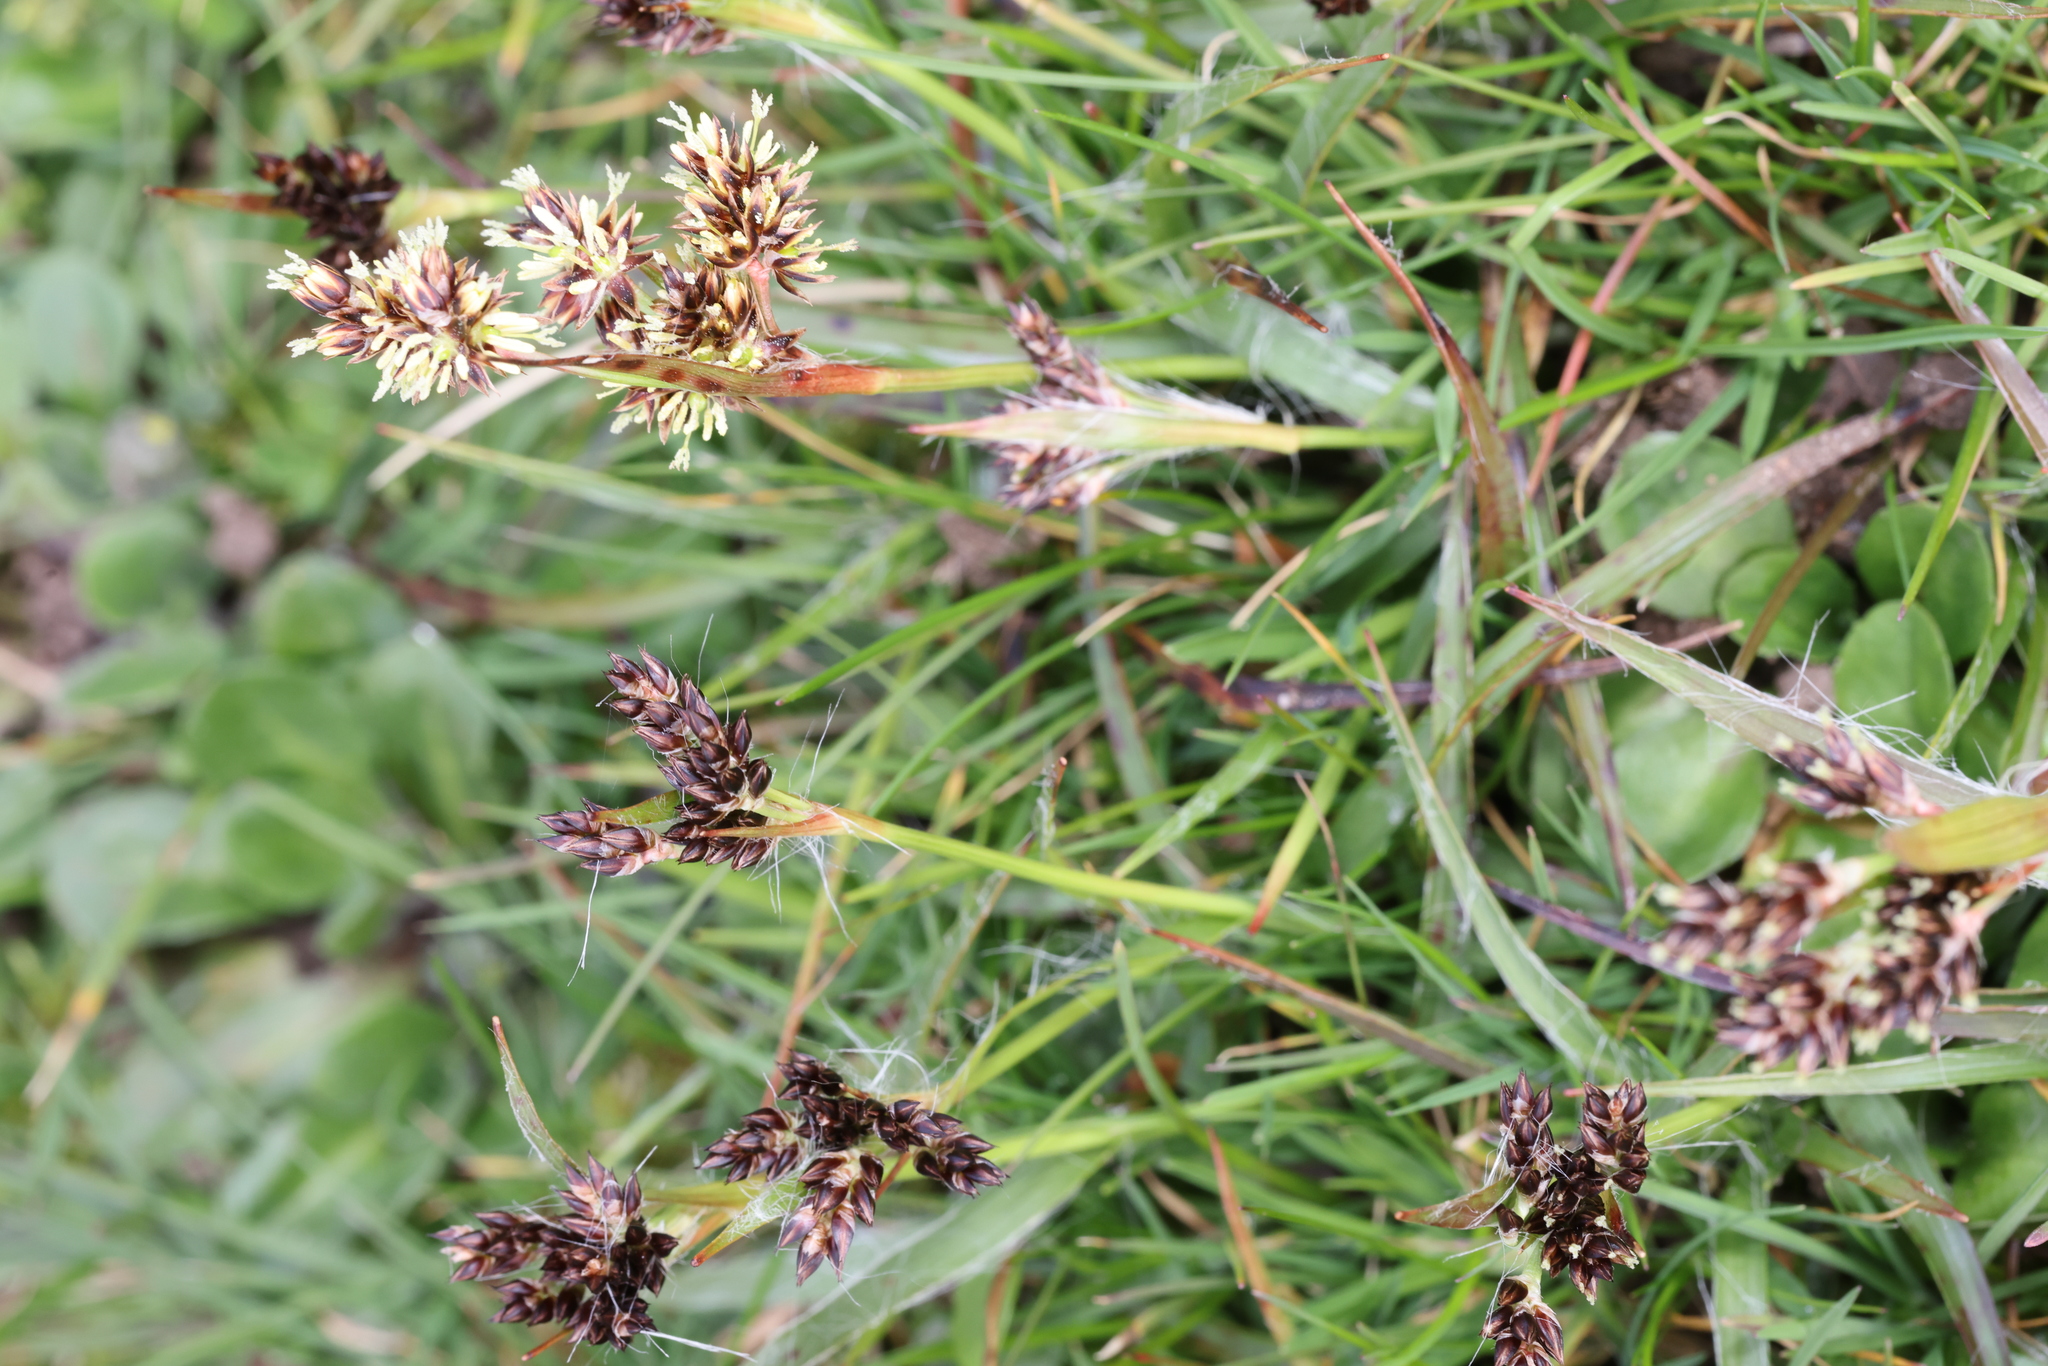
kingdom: Plantae
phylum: Tracheophyta
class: Liliopsida
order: Poales
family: Juncaceae
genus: Luzula
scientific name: Luzula campestris
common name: Field wood-rush
